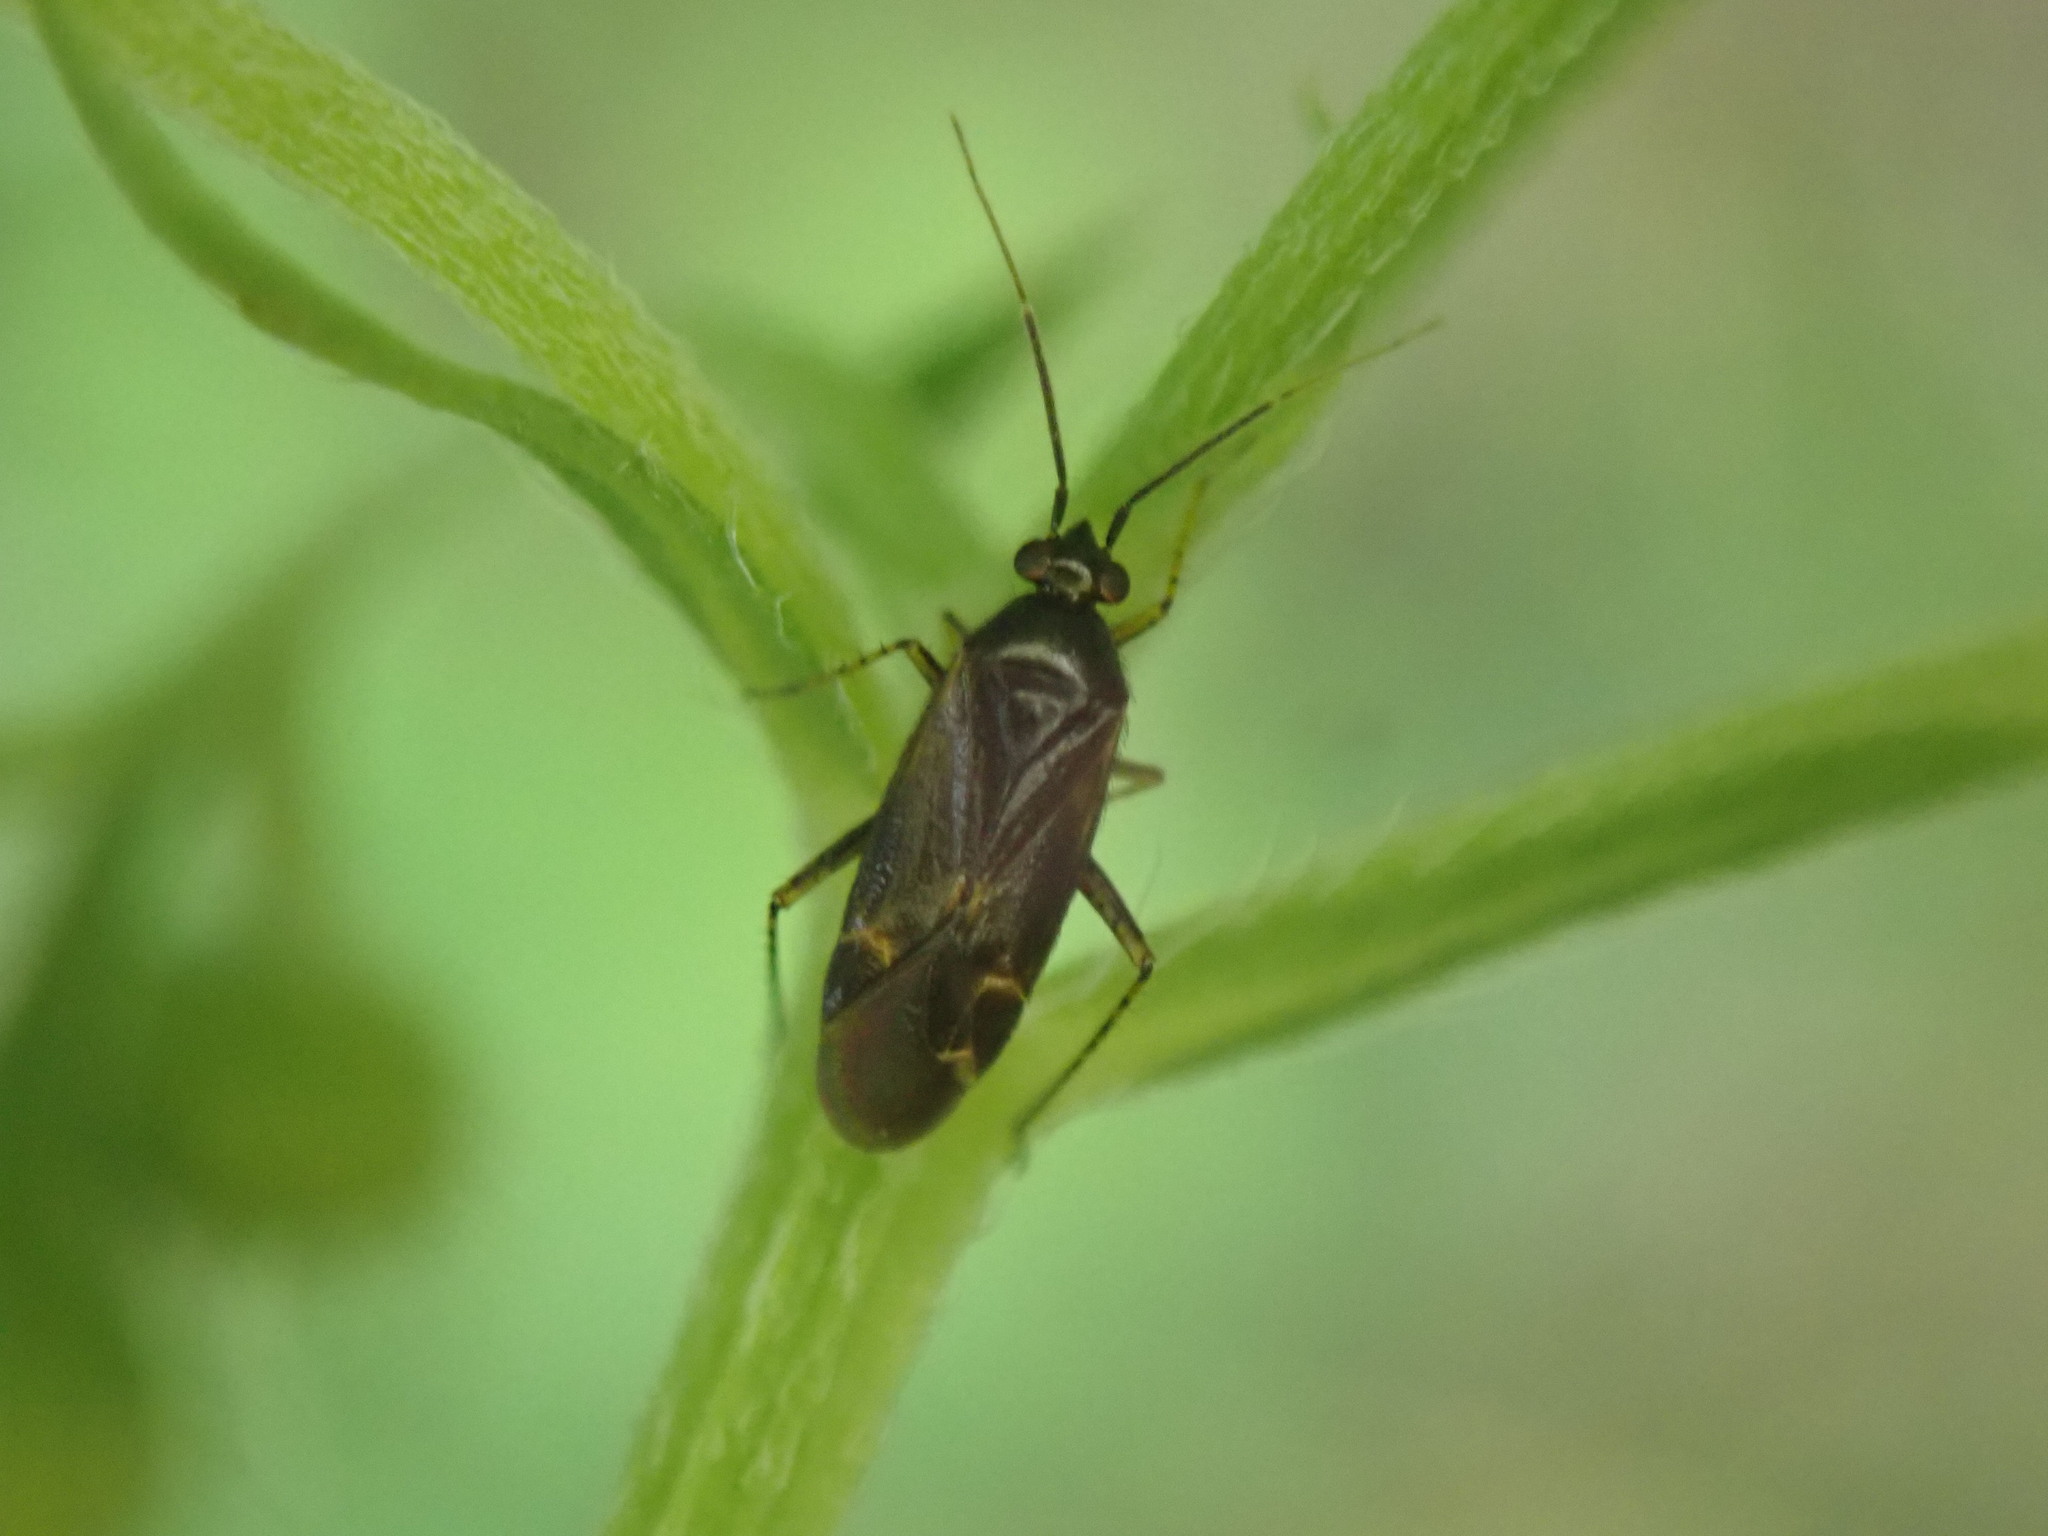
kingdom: Animalia
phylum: Arthropoda
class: Insecta
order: Hemiptera
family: Miridae
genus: Plagiognathus
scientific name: Plagiognathus arbustorum
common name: Plant bug
